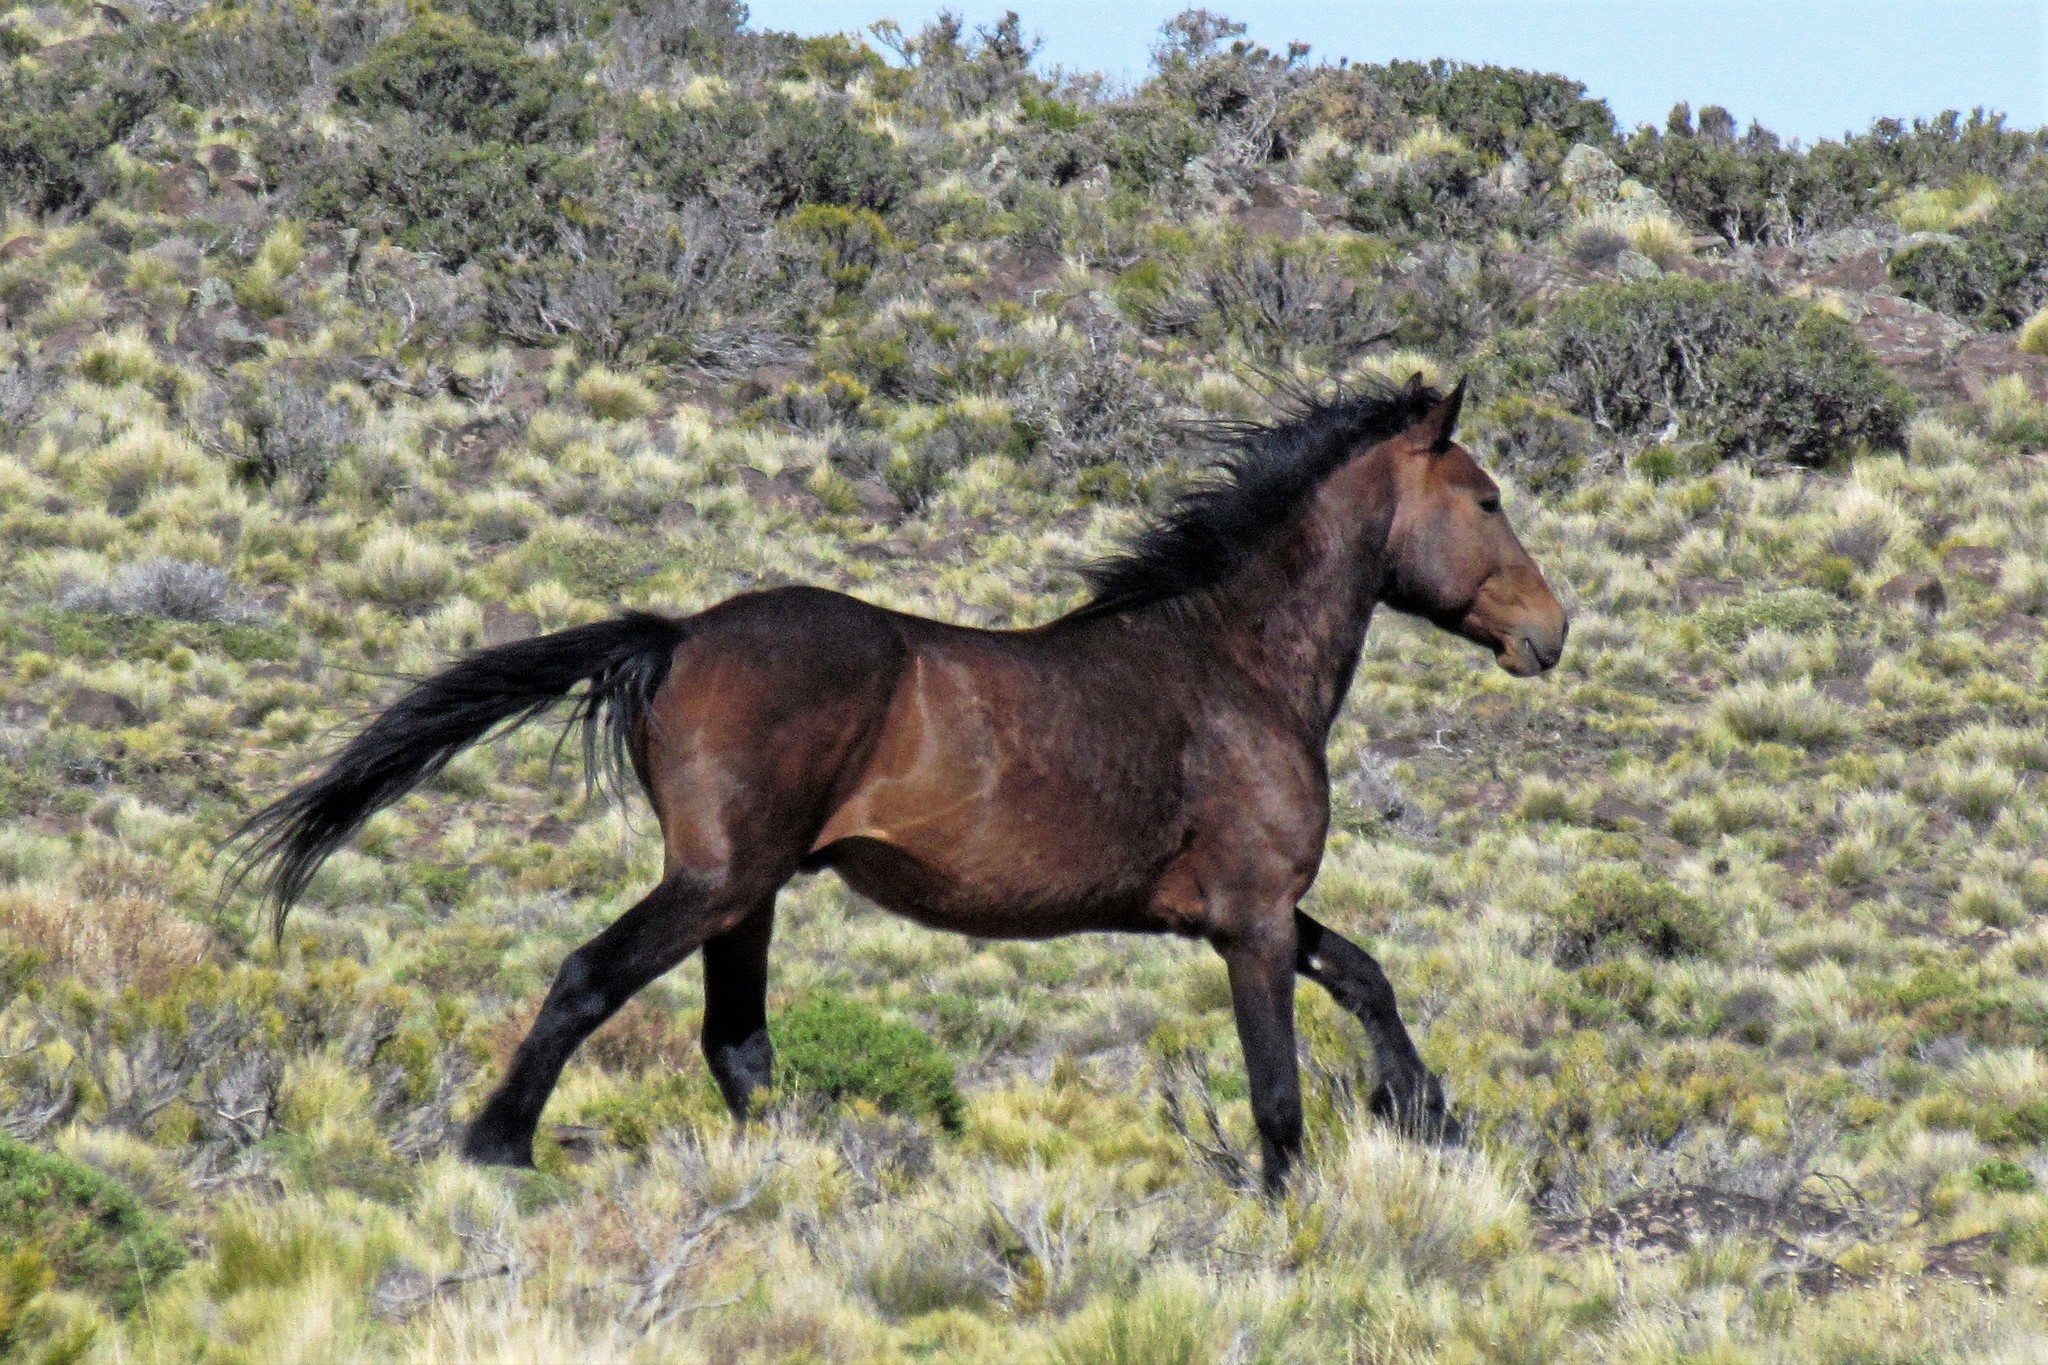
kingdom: Animalia
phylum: Chordata
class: Mammalia
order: Perissodactyla
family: Equidae
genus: Equus
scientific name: Equus caballus
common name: Horse
